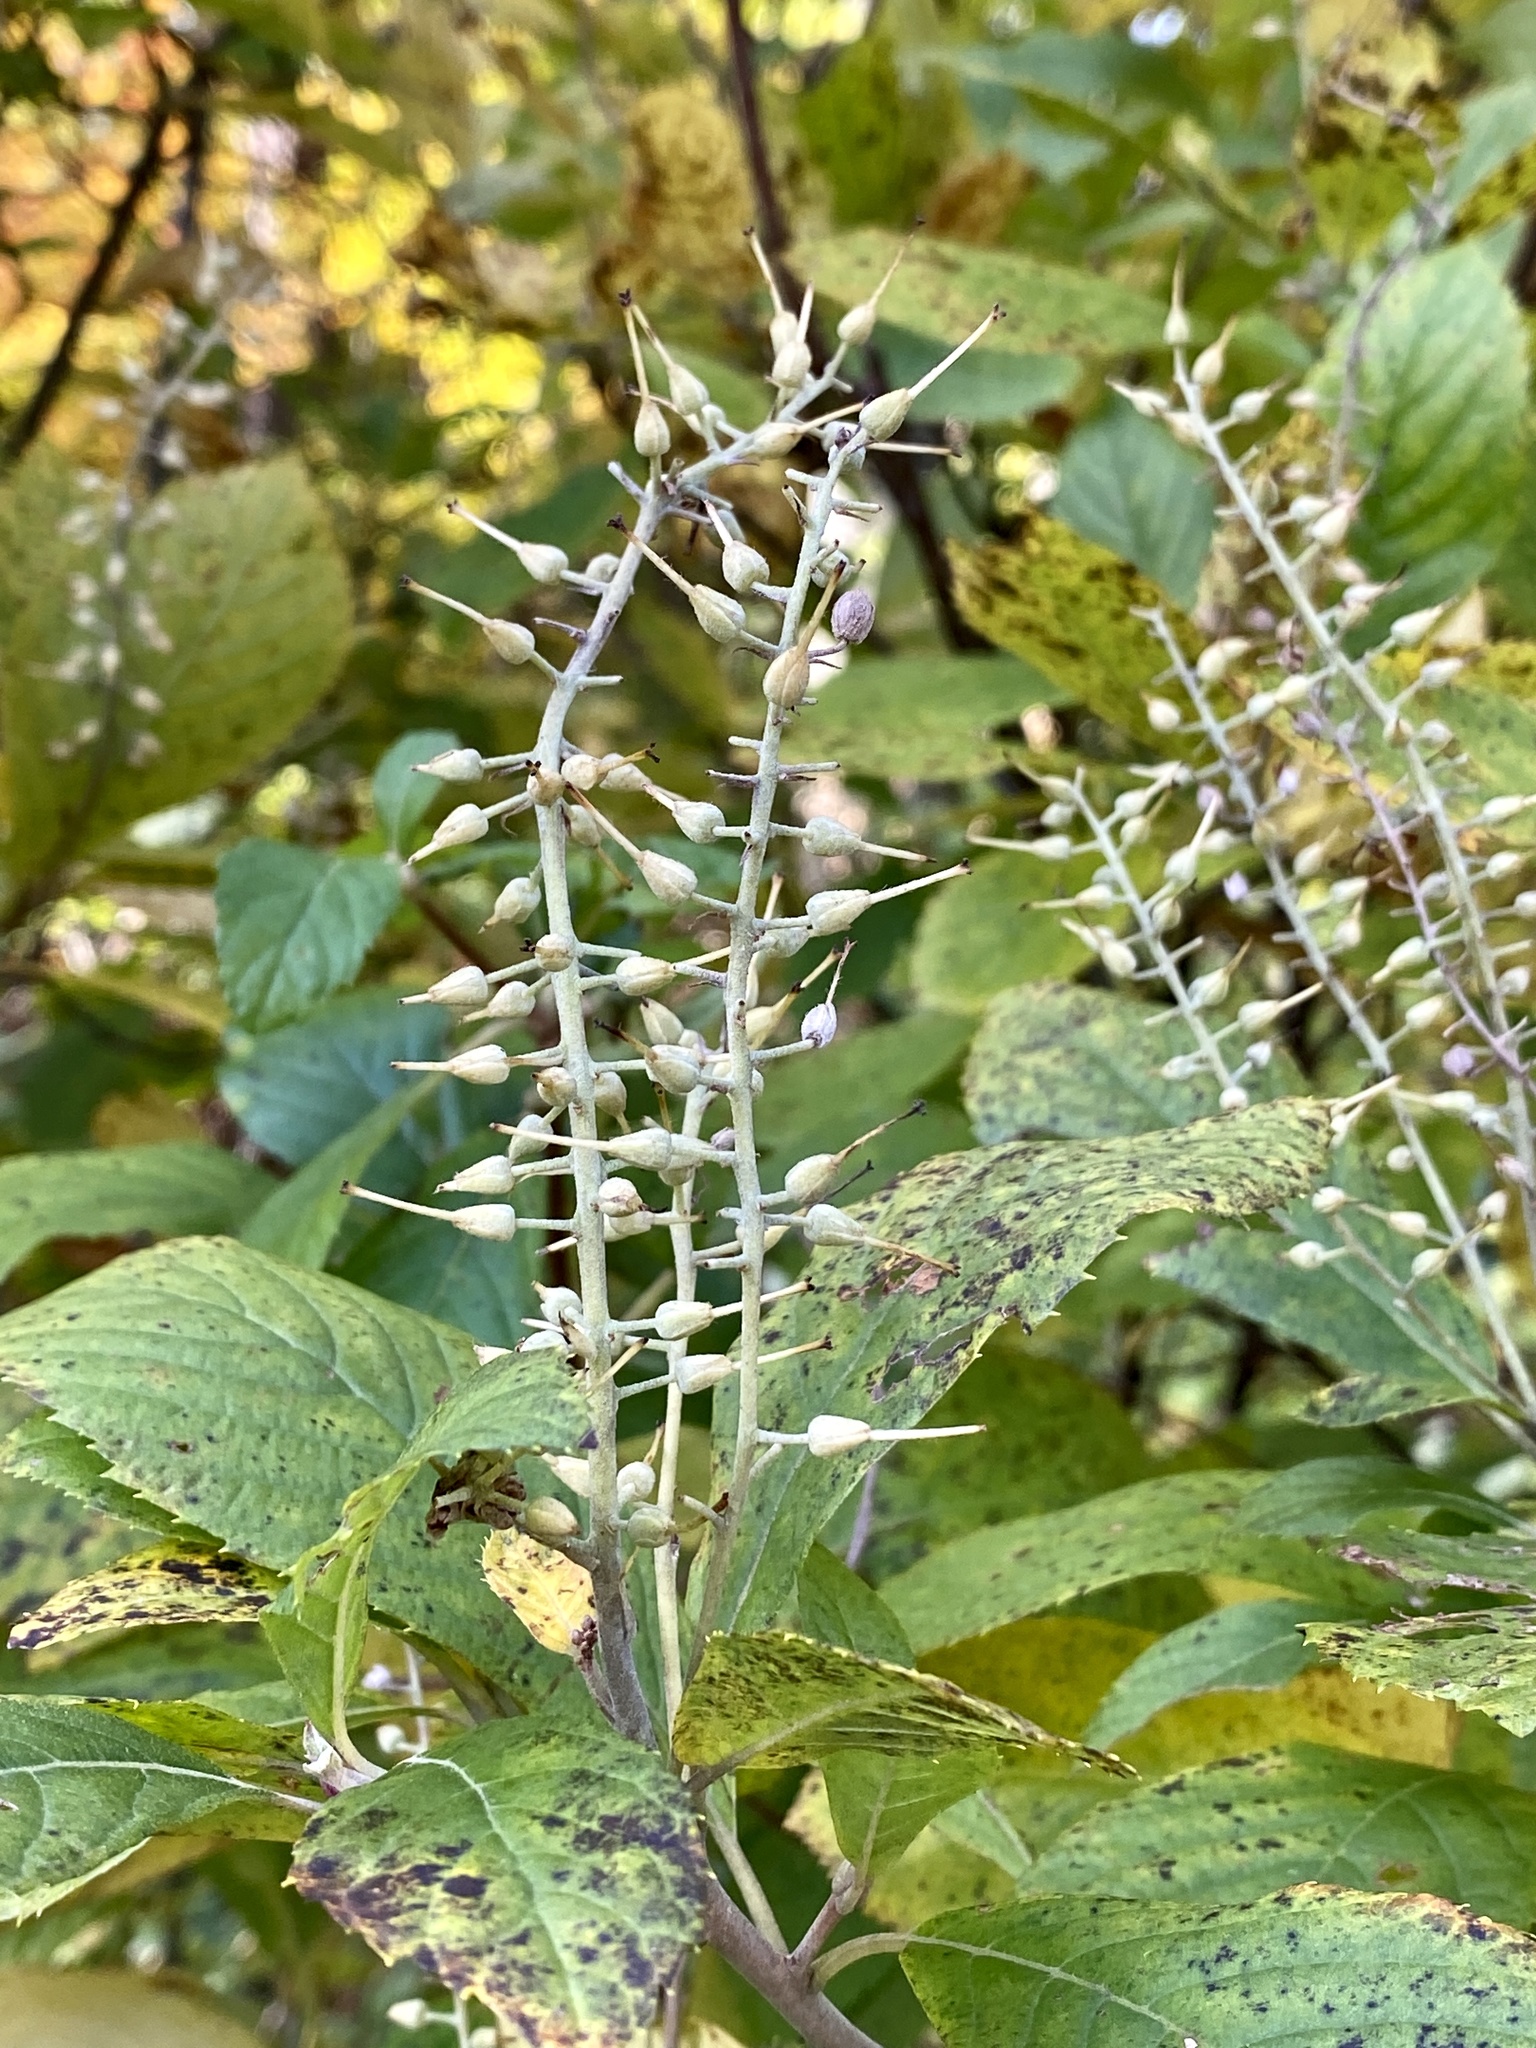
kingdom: Plantae
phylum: Tracheophyta
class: Magnoliopsida
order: Ericales
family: Clethraceae
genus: Clethra
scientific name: Clethra alnifolia
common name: Sweet pepperbush
